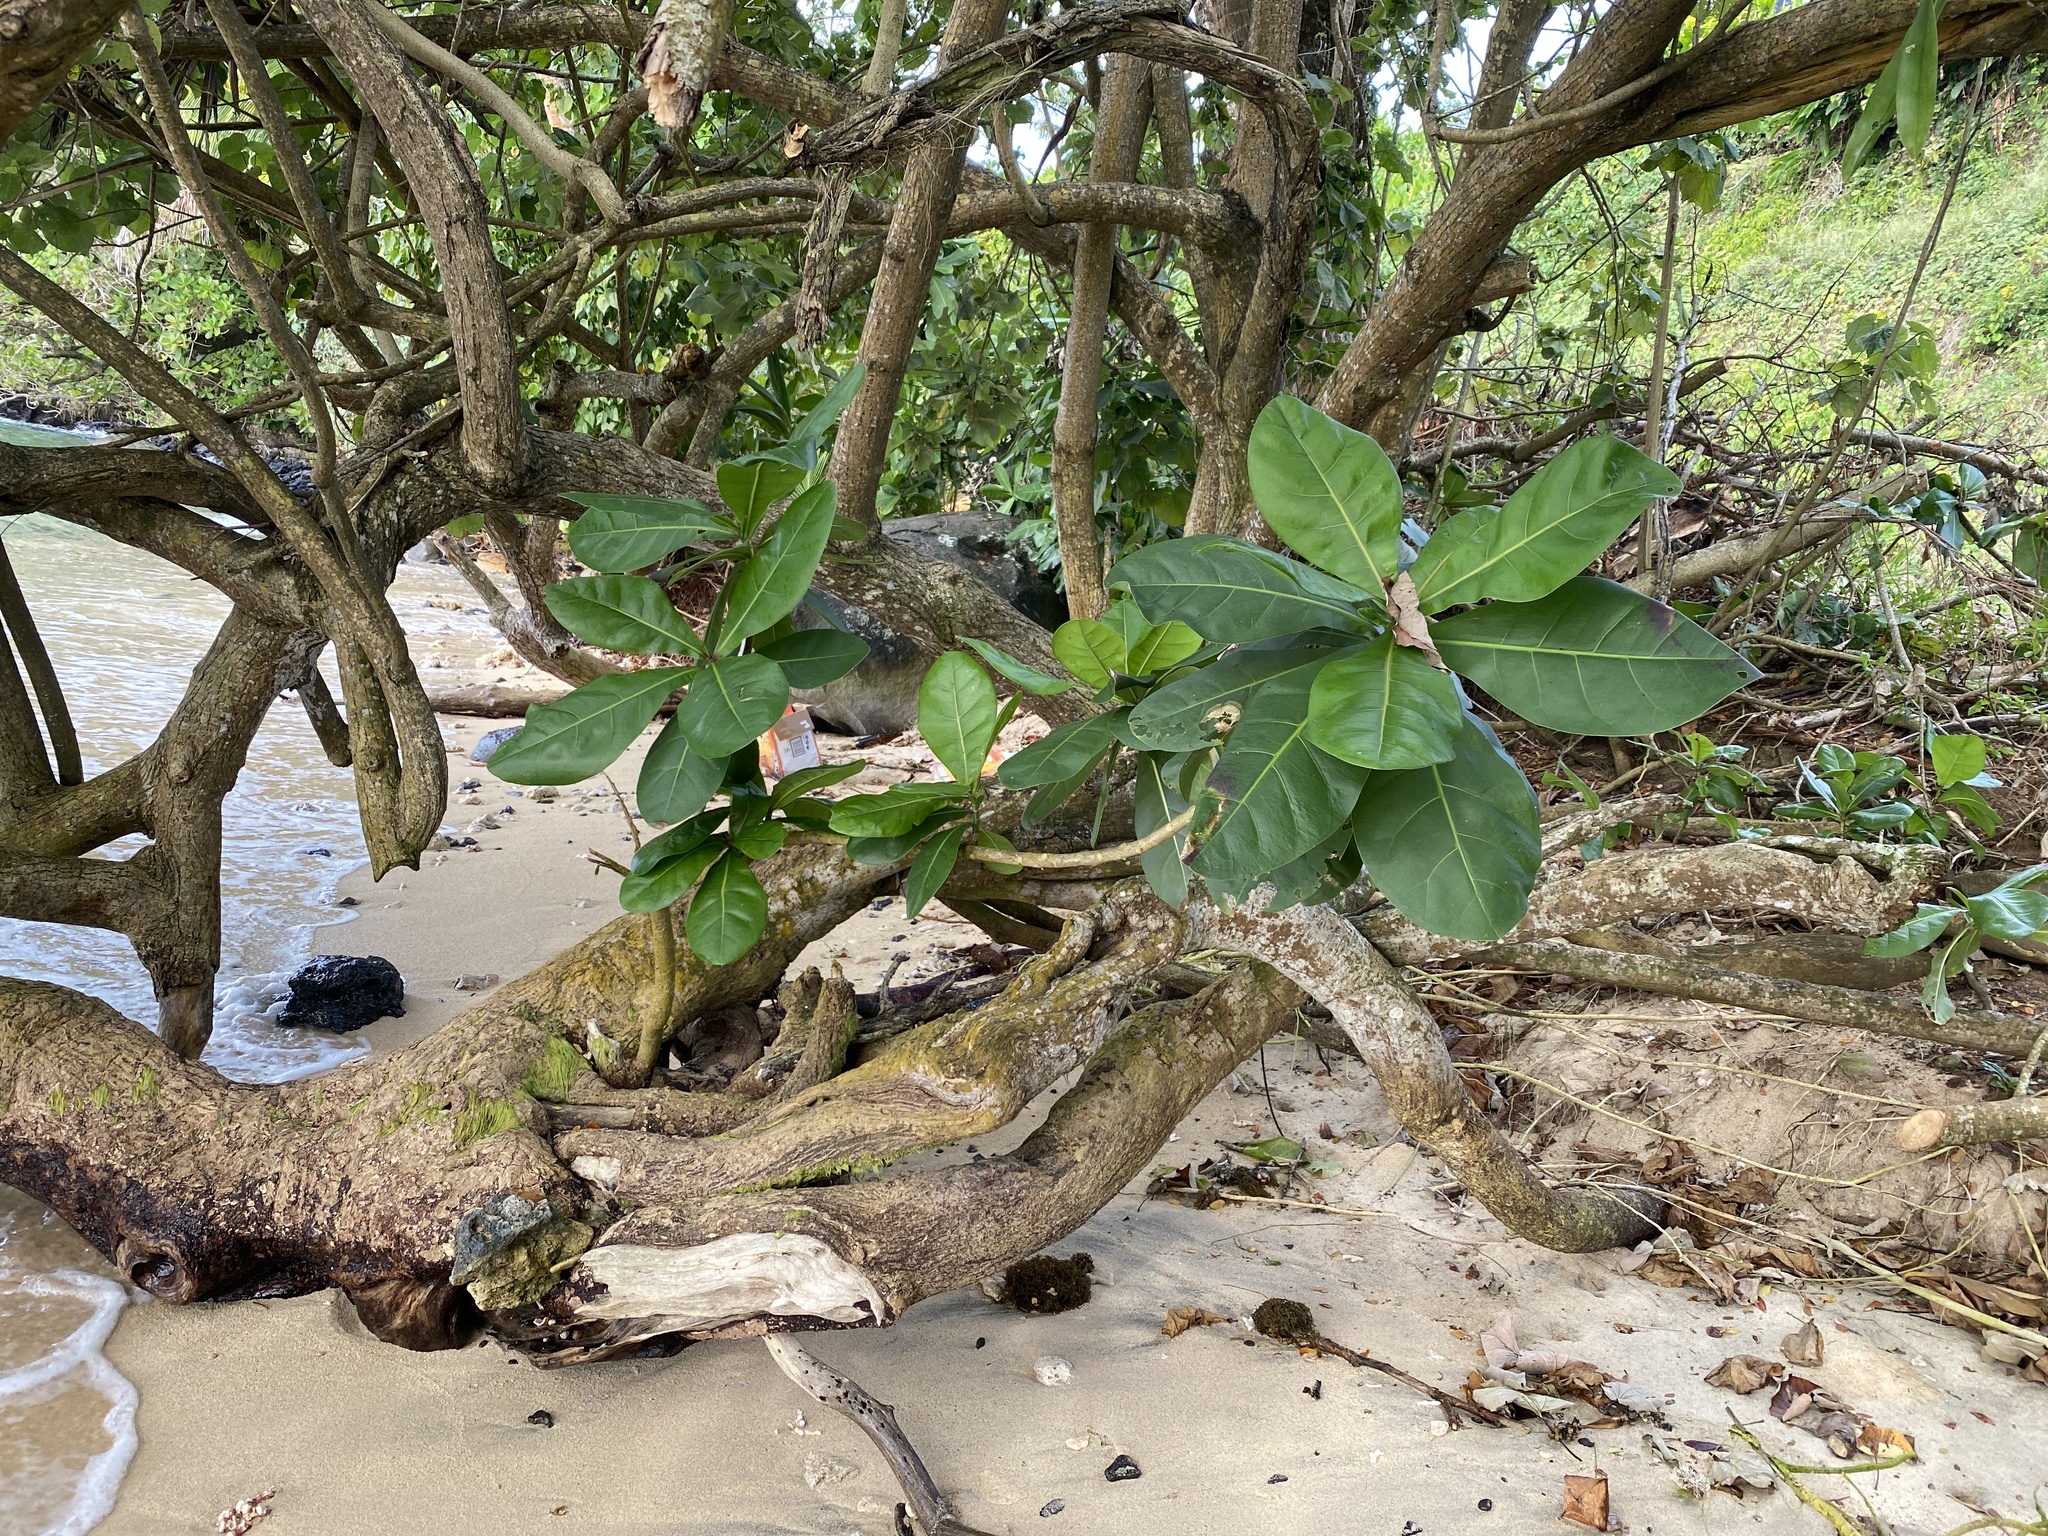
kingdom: Plantae
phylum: Tracheophyta
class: Magnoliopsida
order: Ericales
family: Lecythidaceae
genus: Barringtonia
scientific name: Barringtonia asiatica
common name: Mango-pine
